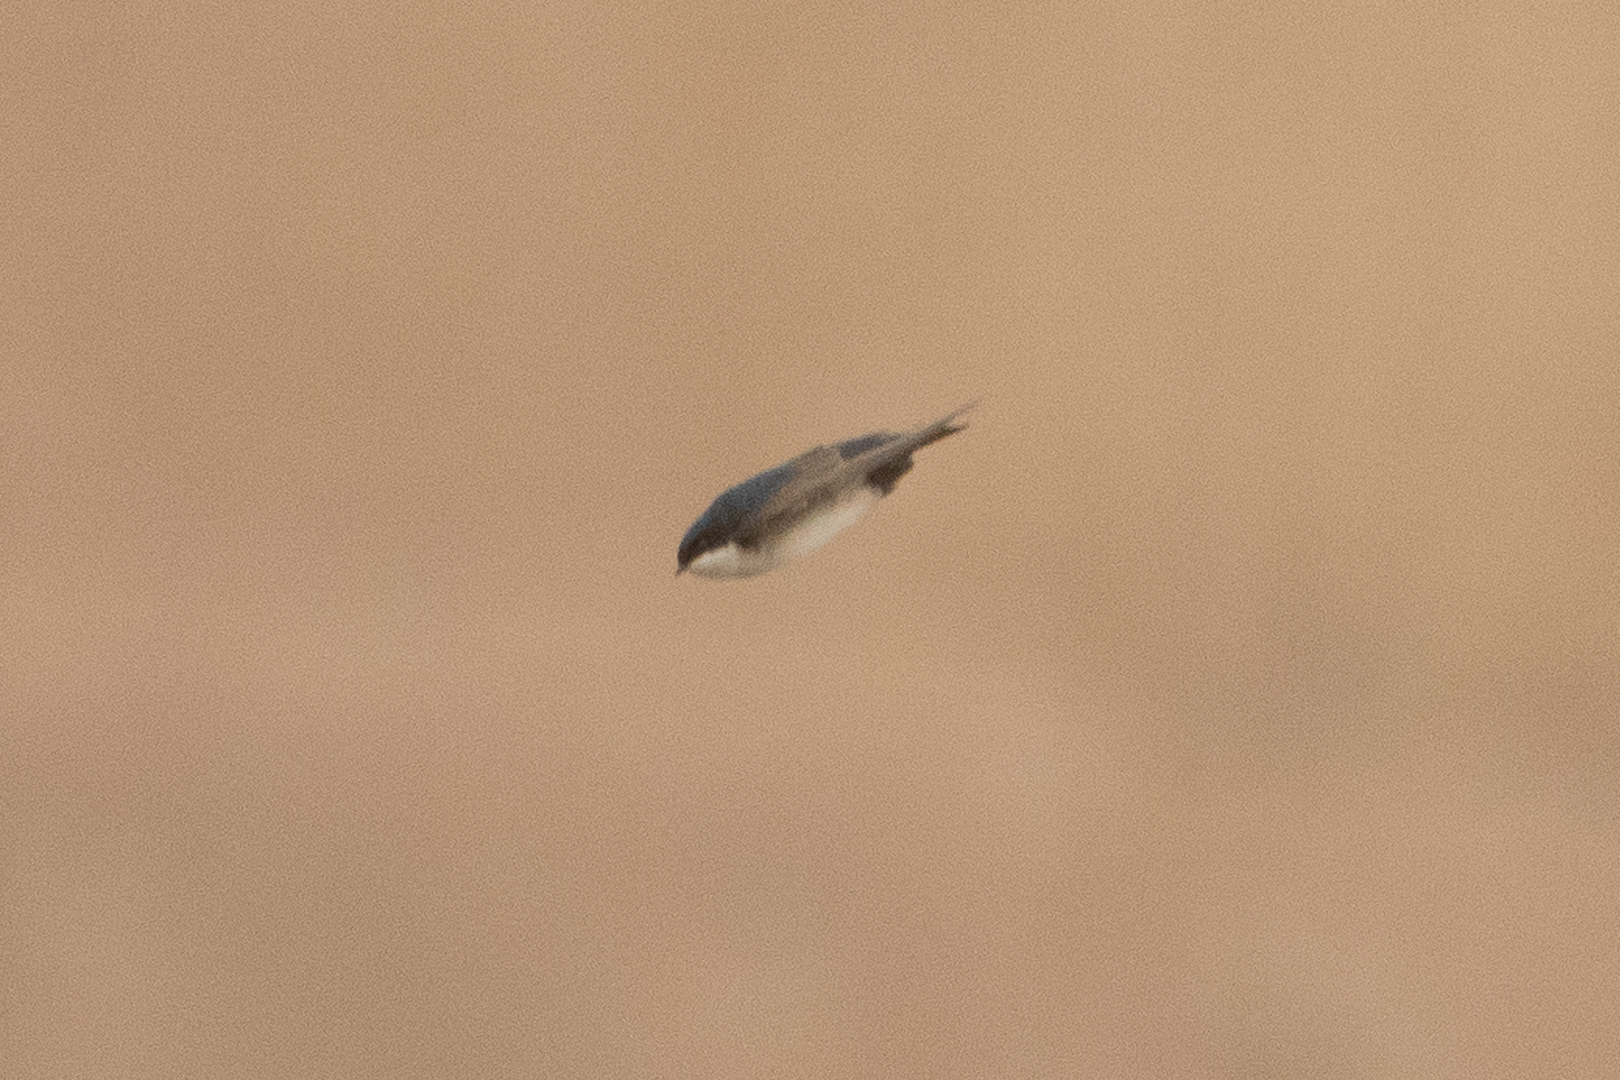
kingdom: Animalia
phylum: Chordata
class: Aves
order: Passeriformes
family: Hirundinidae
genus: Notiochelidon
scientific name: Notiochelidon cyanoleuca
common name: Blue-and-white swallow
